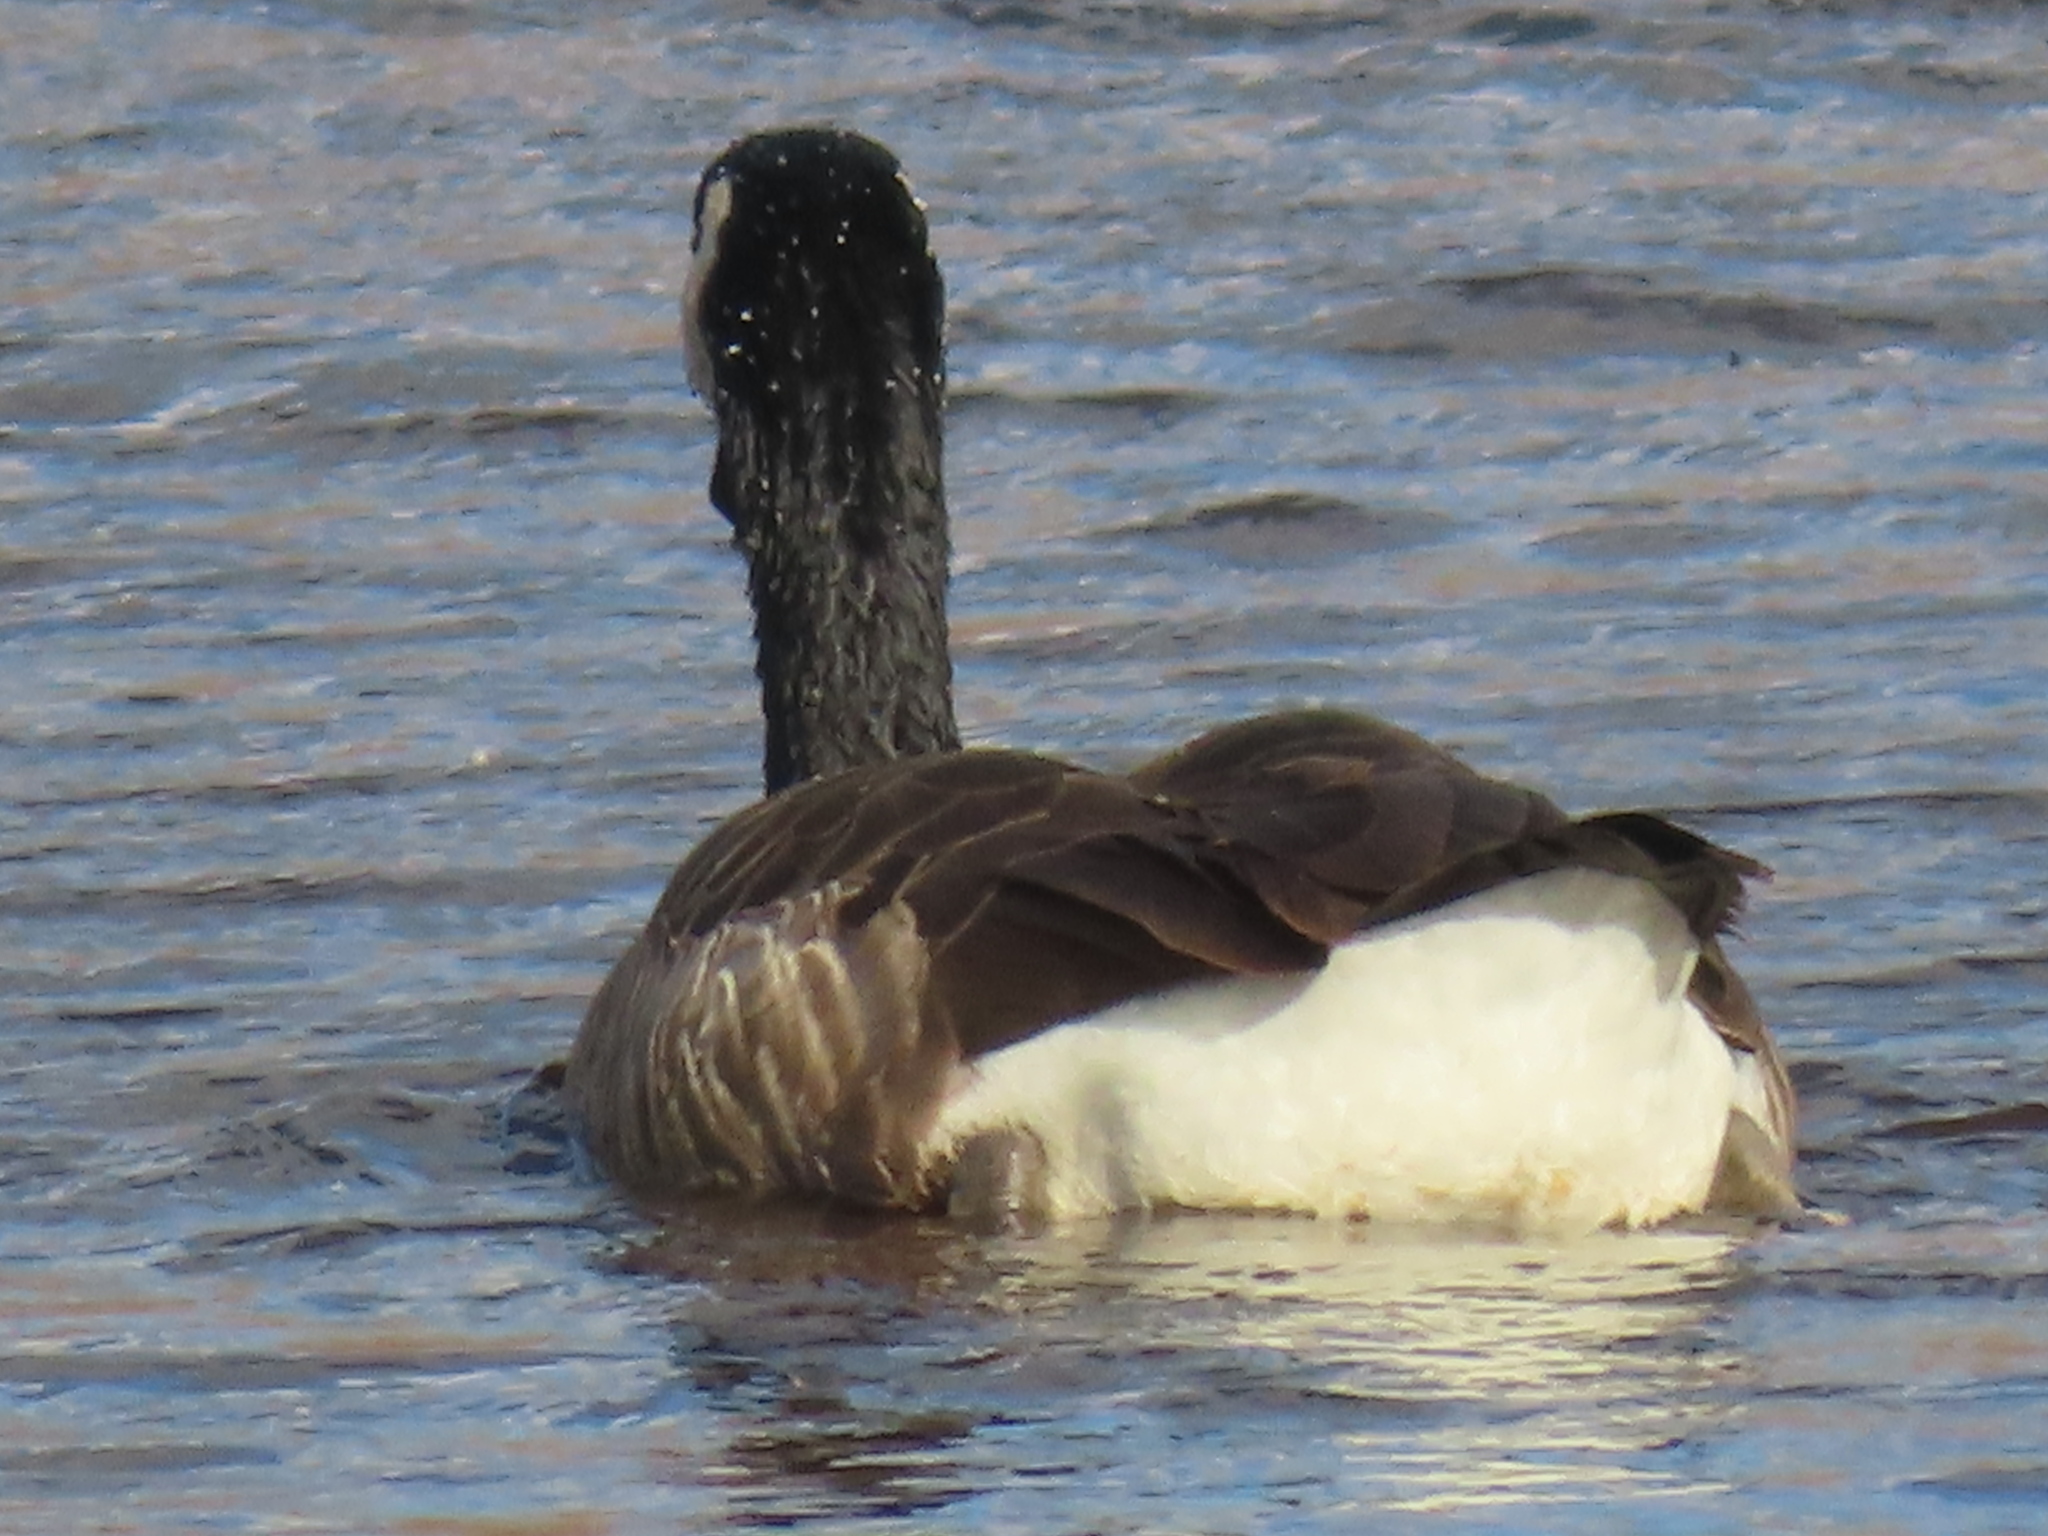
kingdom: Animalia
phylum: Chordata
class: Aves
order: Anseriformes
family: Anatidae
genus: Branta
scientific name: Branta canadensis
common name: Canada goose
